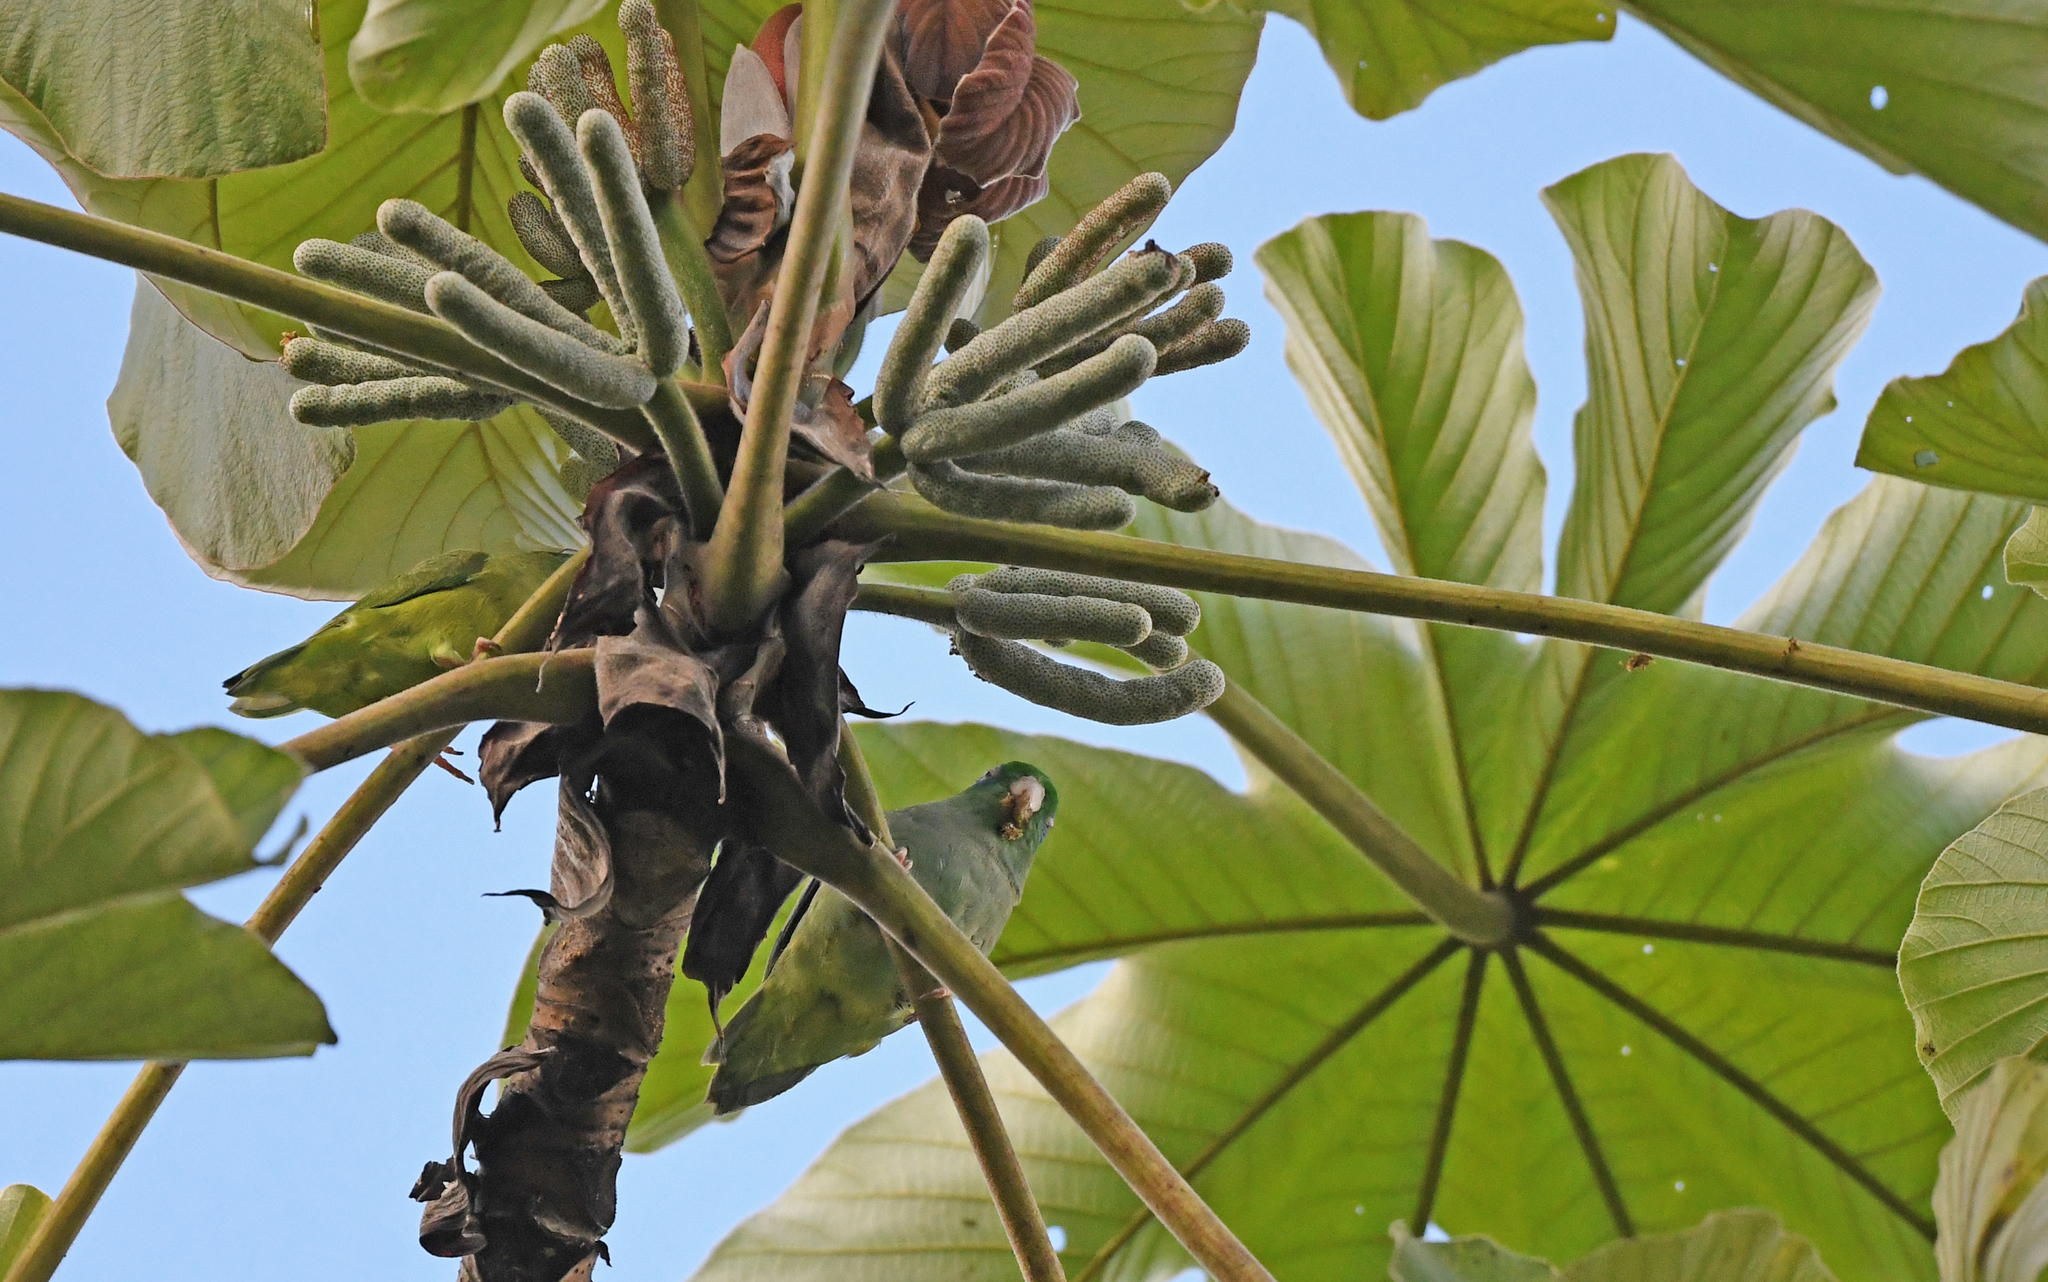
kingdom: Animalia
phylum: Chordata
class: Aves
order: Psittaciformes
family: Psittacidae
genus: Forpus
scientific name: Forpus conspicillatus
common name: Spectacled parrotlet
